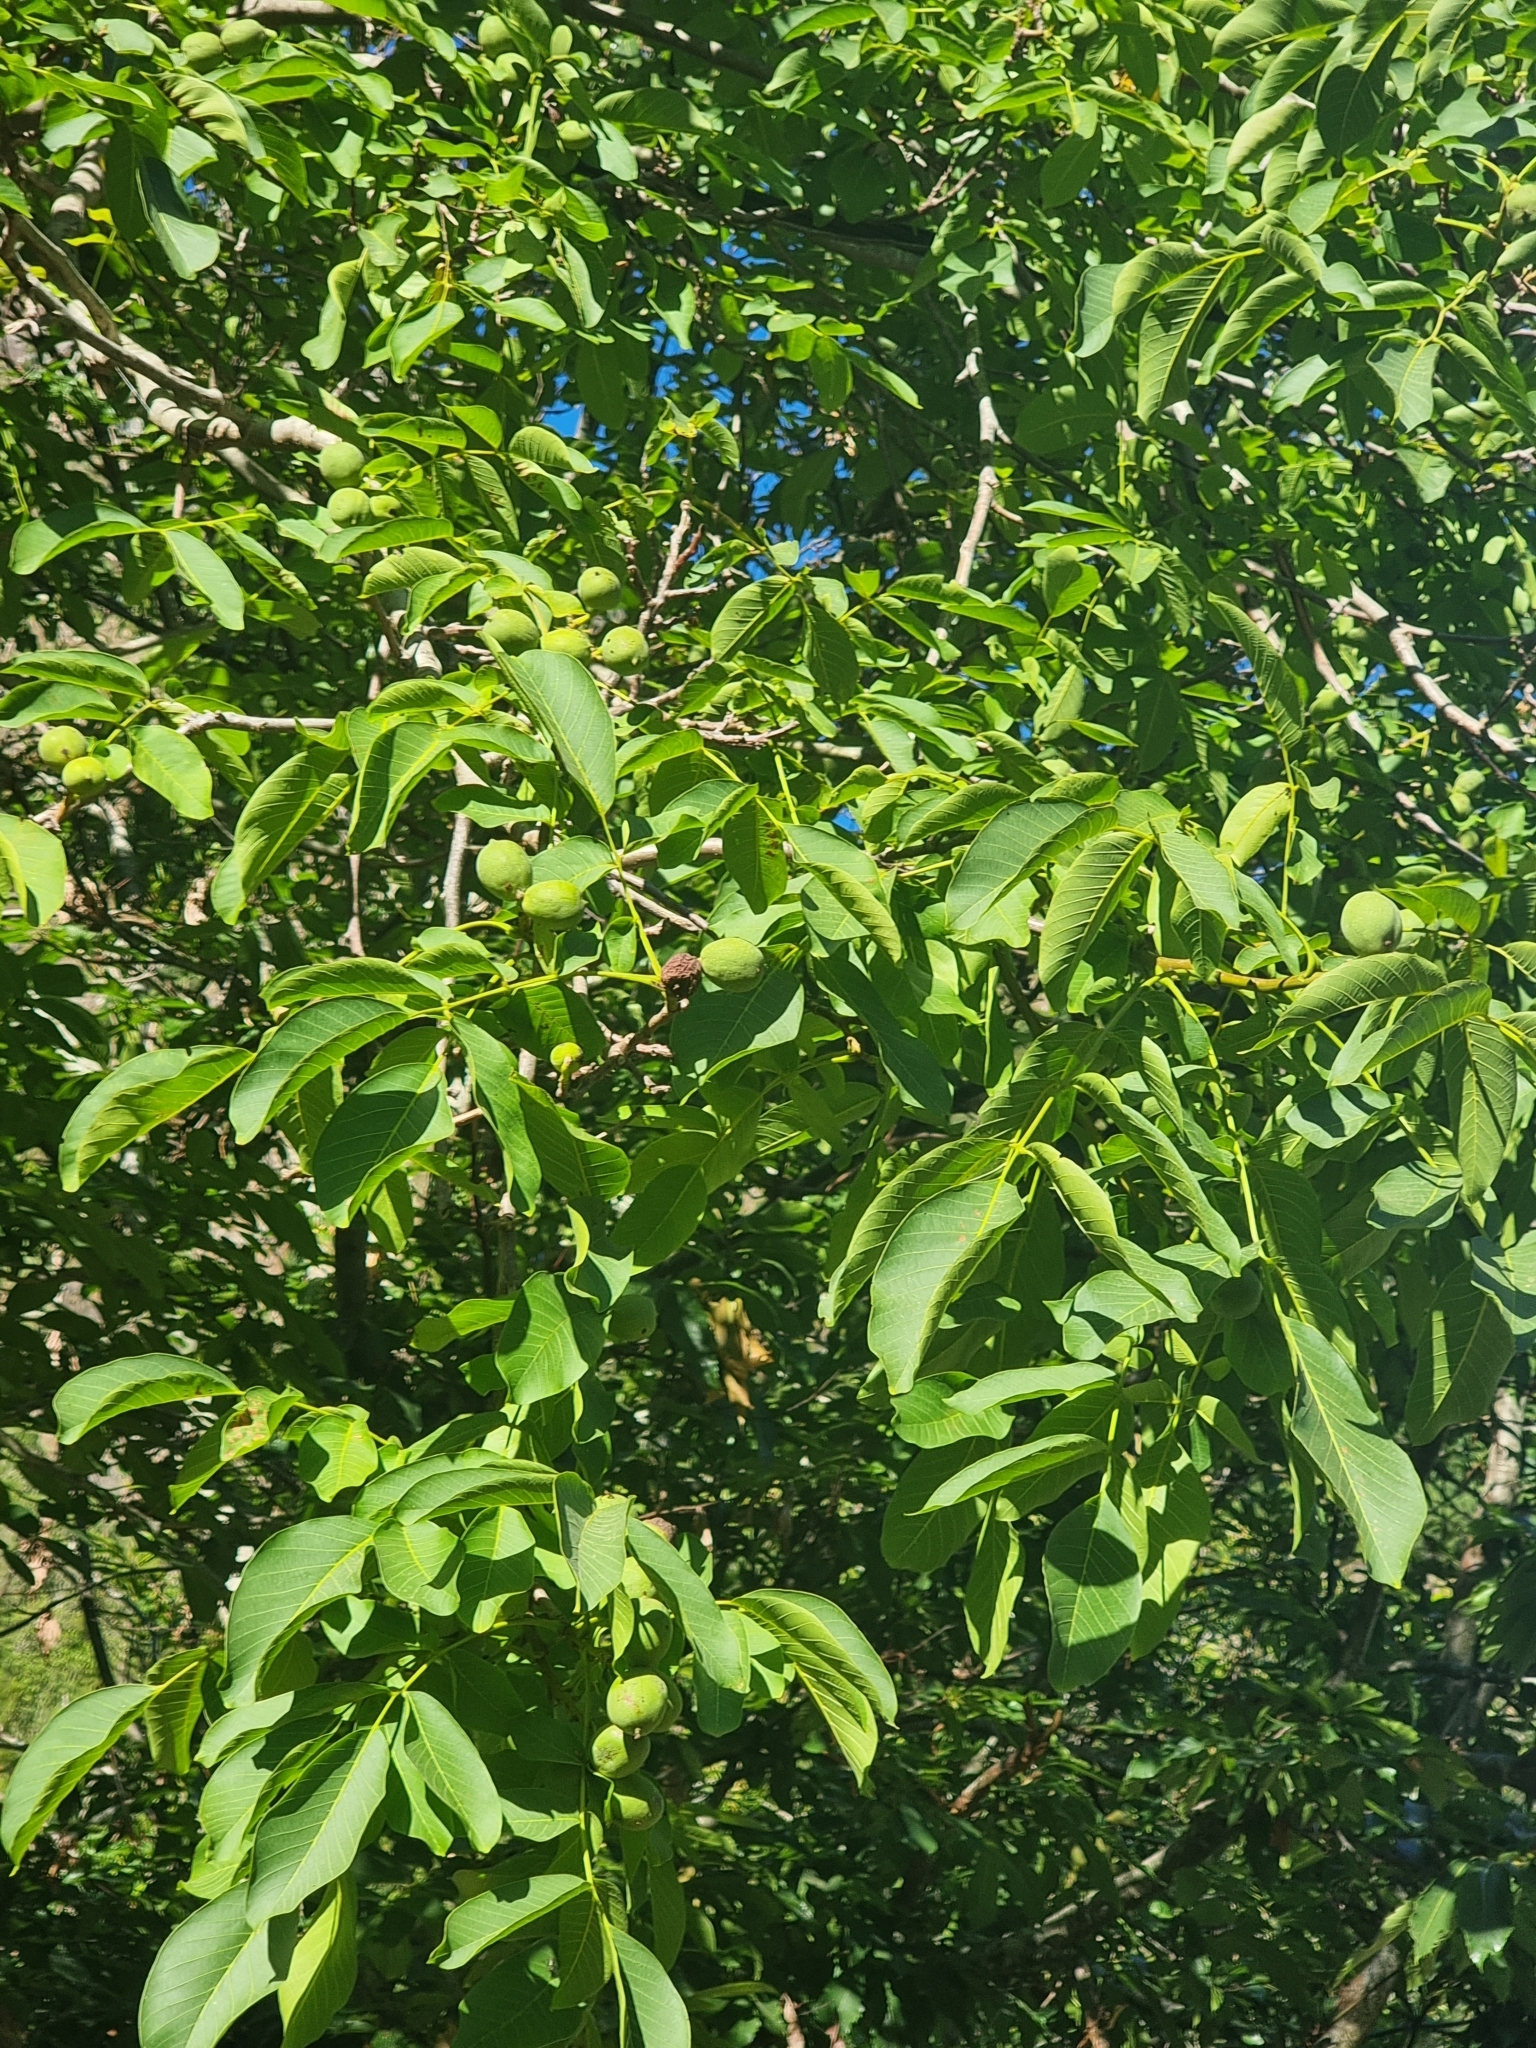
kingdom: Plantae
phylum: Tracheophyta
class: Magnoliopsida
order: Fagales
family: Juglandaceae
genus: Juglans
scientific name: Juglans regia
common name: Walnut
